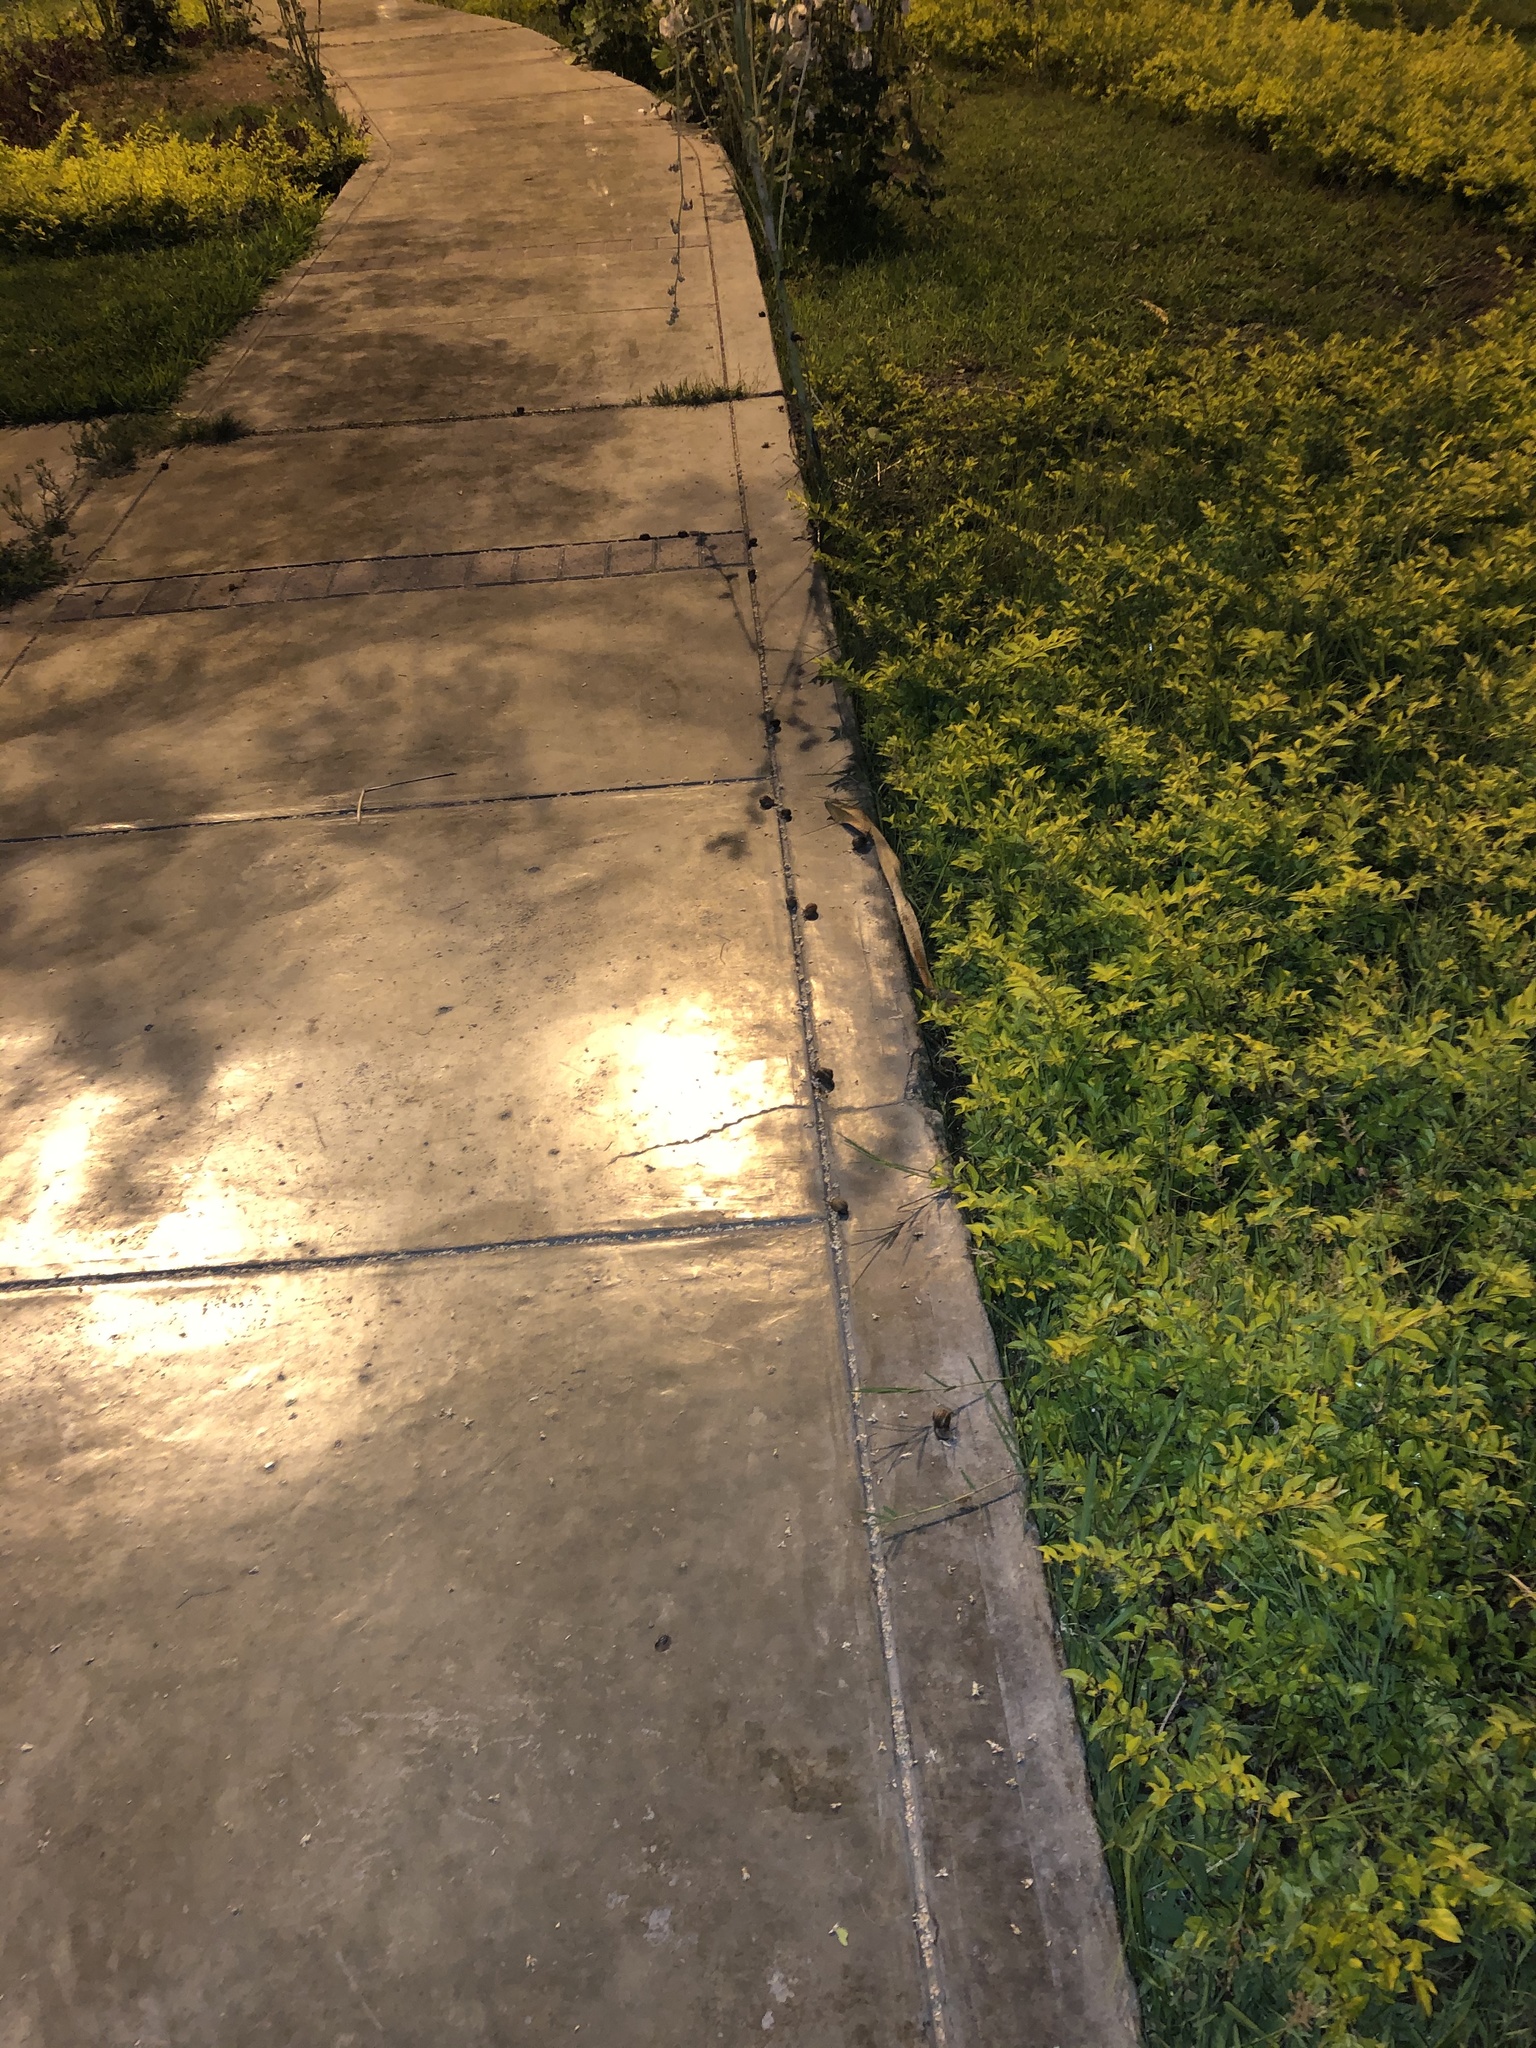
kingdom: Animalia
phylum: Mollusca
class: Gastropoda
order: Stylommatophora
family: Helicidae
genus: Cornu
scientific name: Cornu aspersum
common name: Brown garden snail
